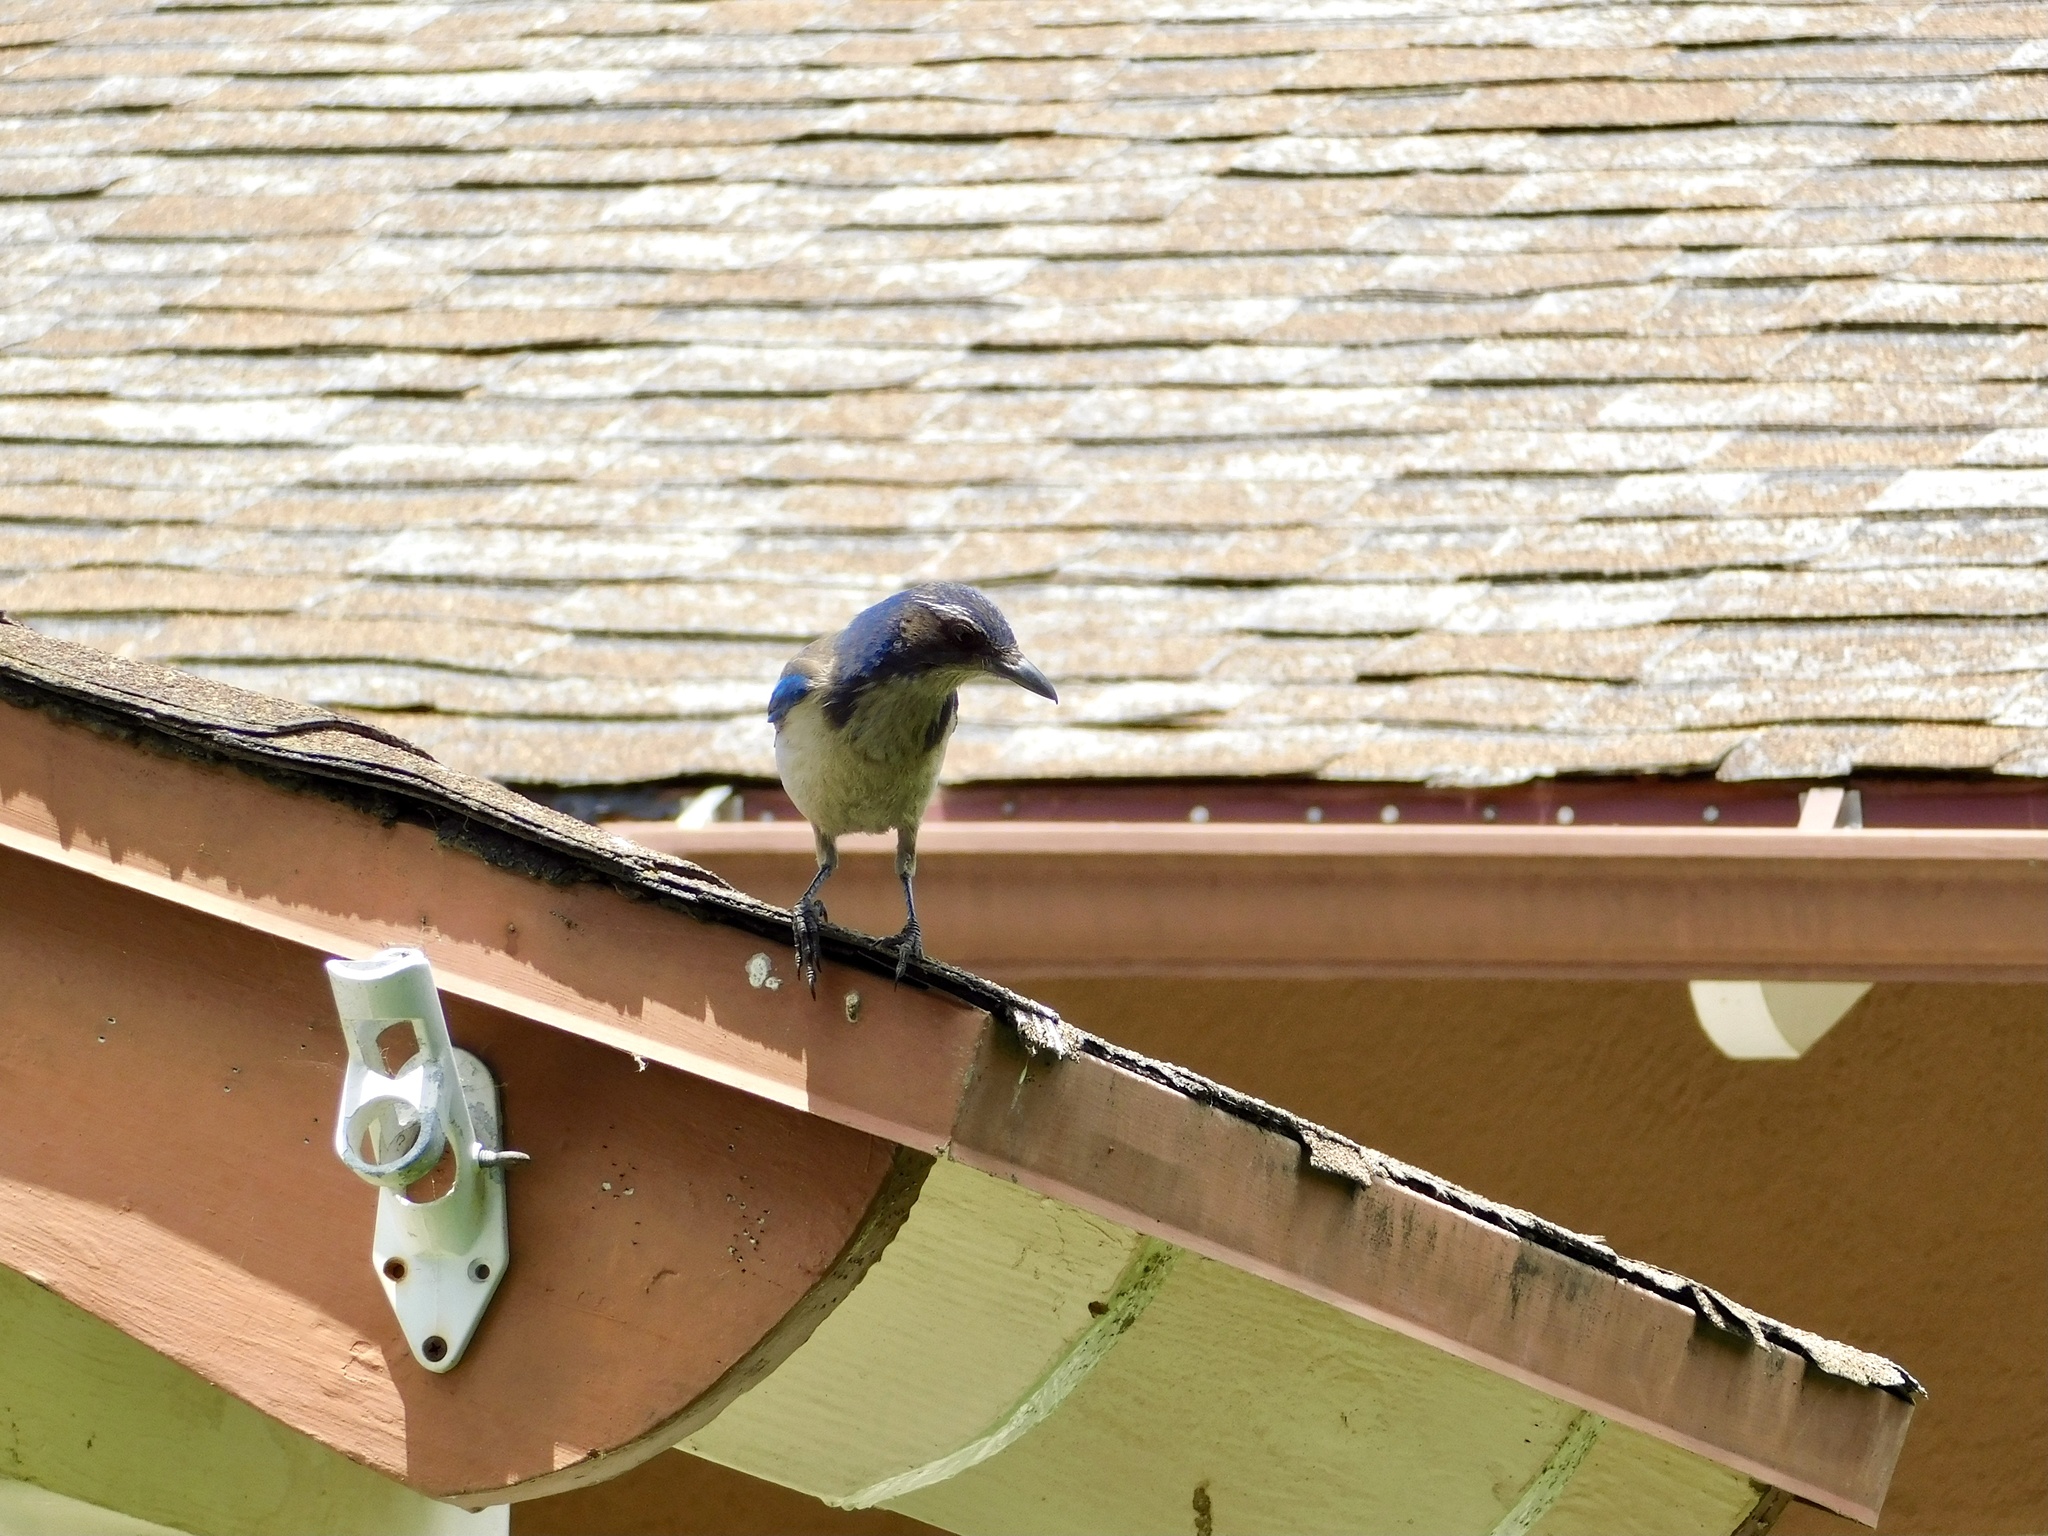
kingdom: Animalia
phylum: Chordata
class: Aves
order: Passeriformes
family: Corvidae
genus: Aphelocoma
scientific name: Aphelocoma californica
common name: California scrub-jay
